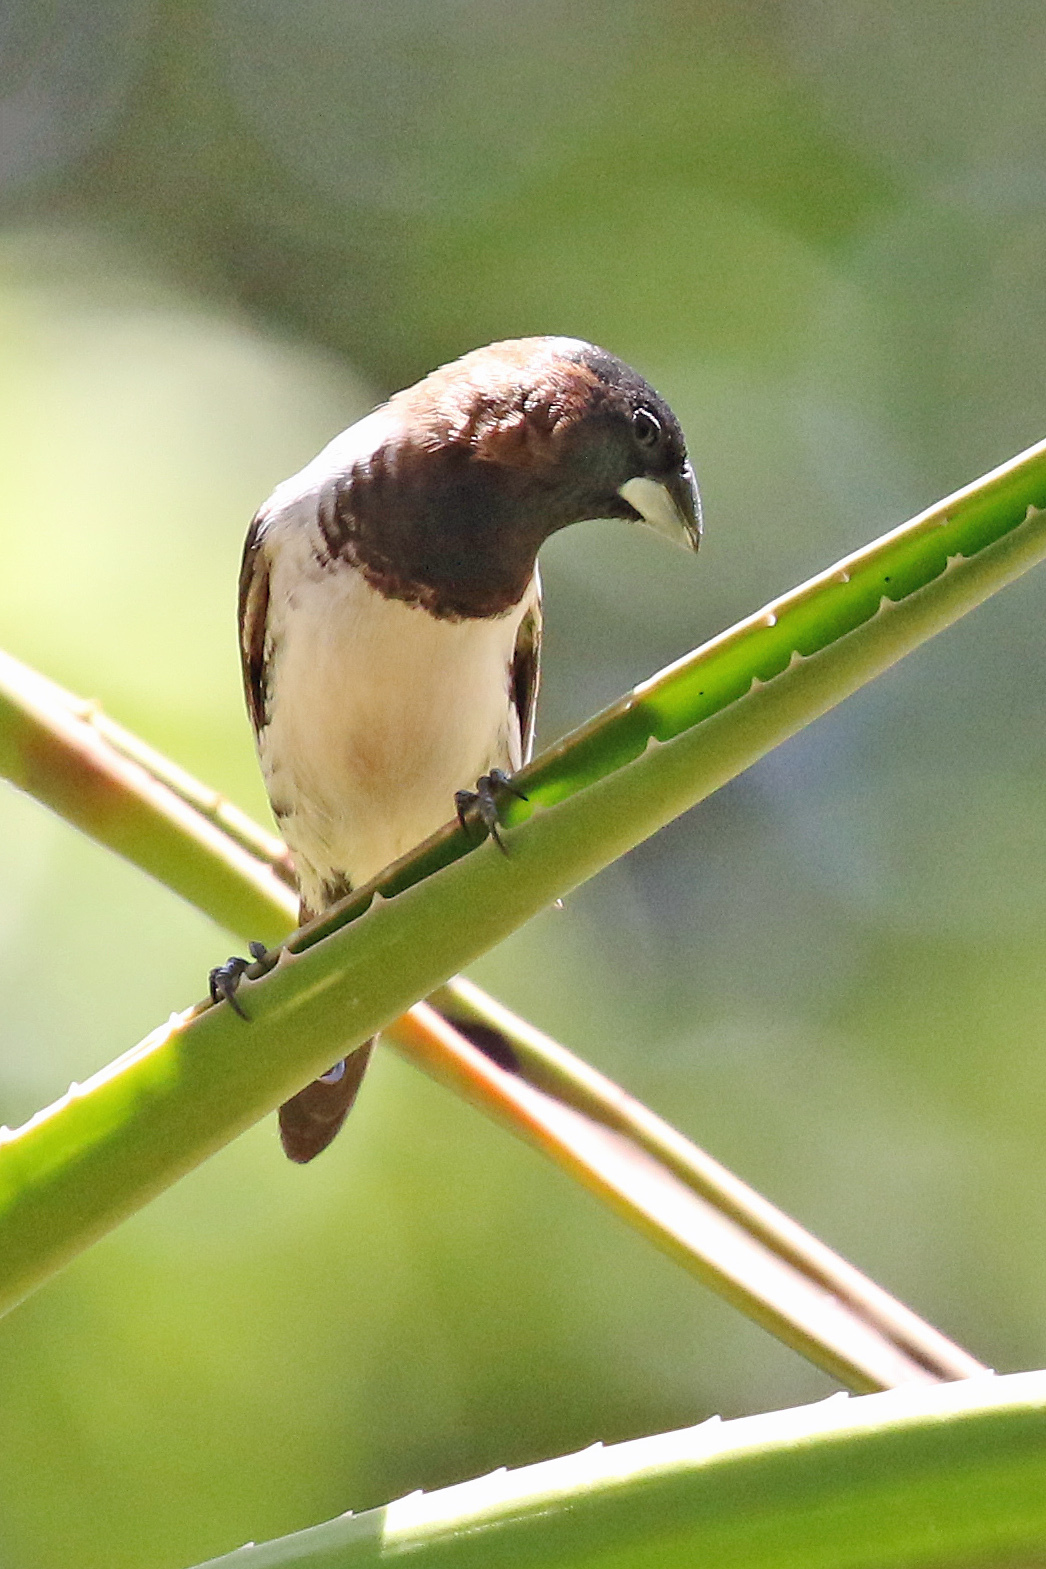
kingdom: Animalia
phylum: Chordata
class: Aves
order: Passeriformes
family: Estrildidae
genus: Lonchura
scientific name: Lonchura cucullata
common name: Bronze mannikin
